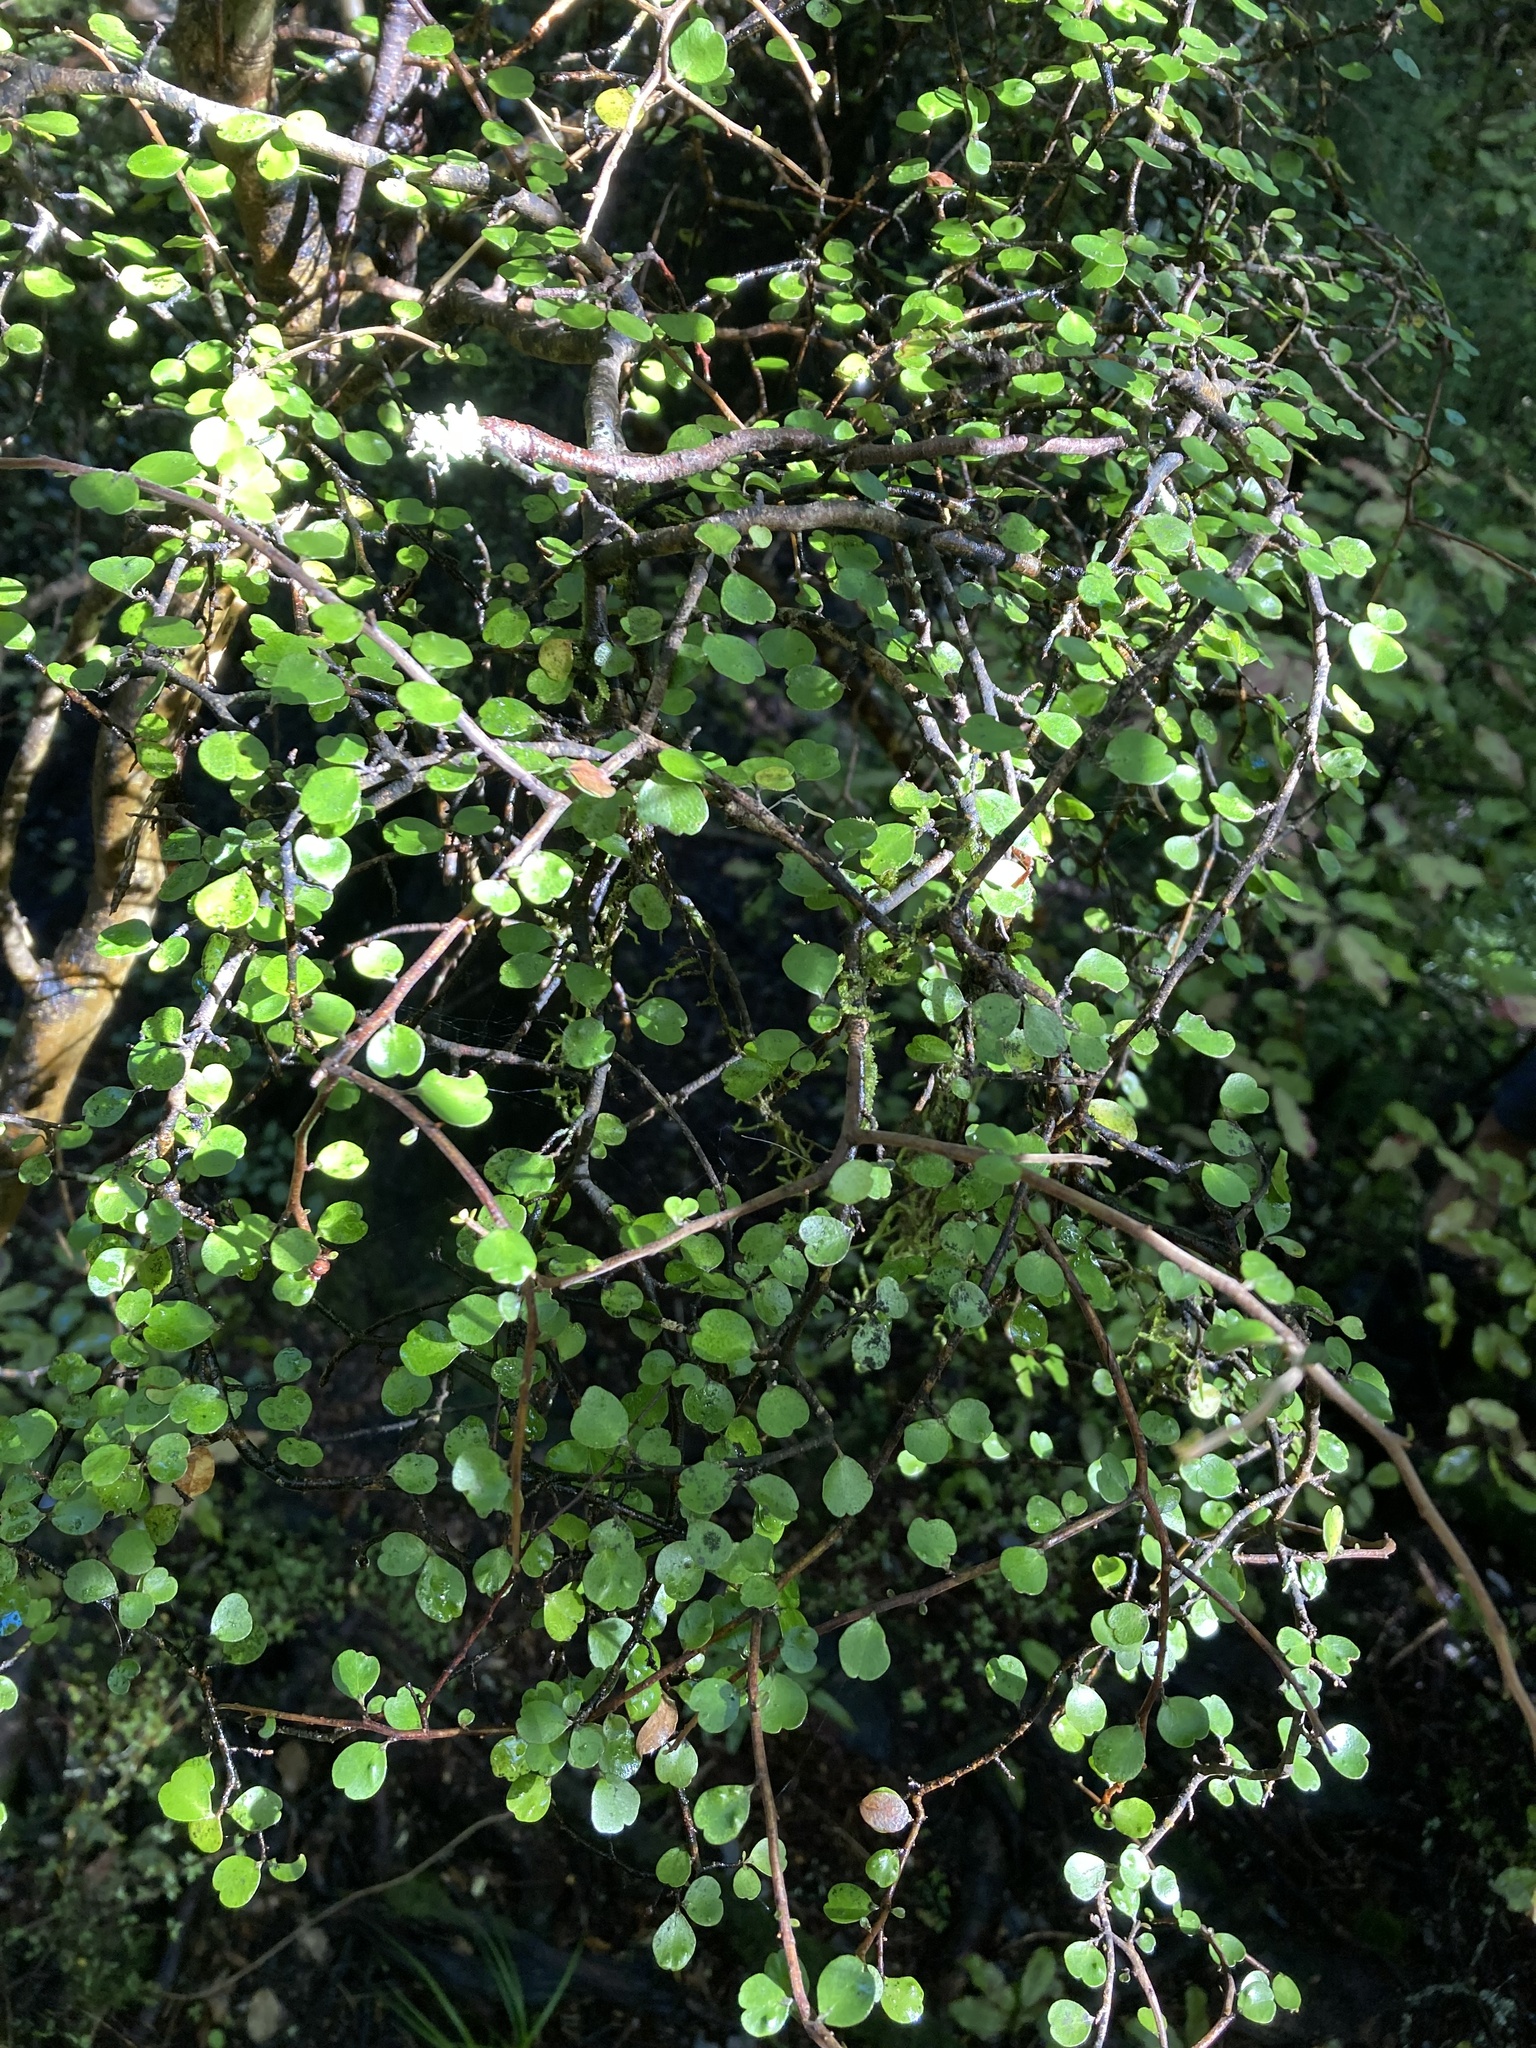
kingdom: Plantae
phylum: Tracheophyta
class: Magnoliopsida
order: Ericales
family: Primulaceae
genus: Myrsine
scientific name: Myrsine divaricata
